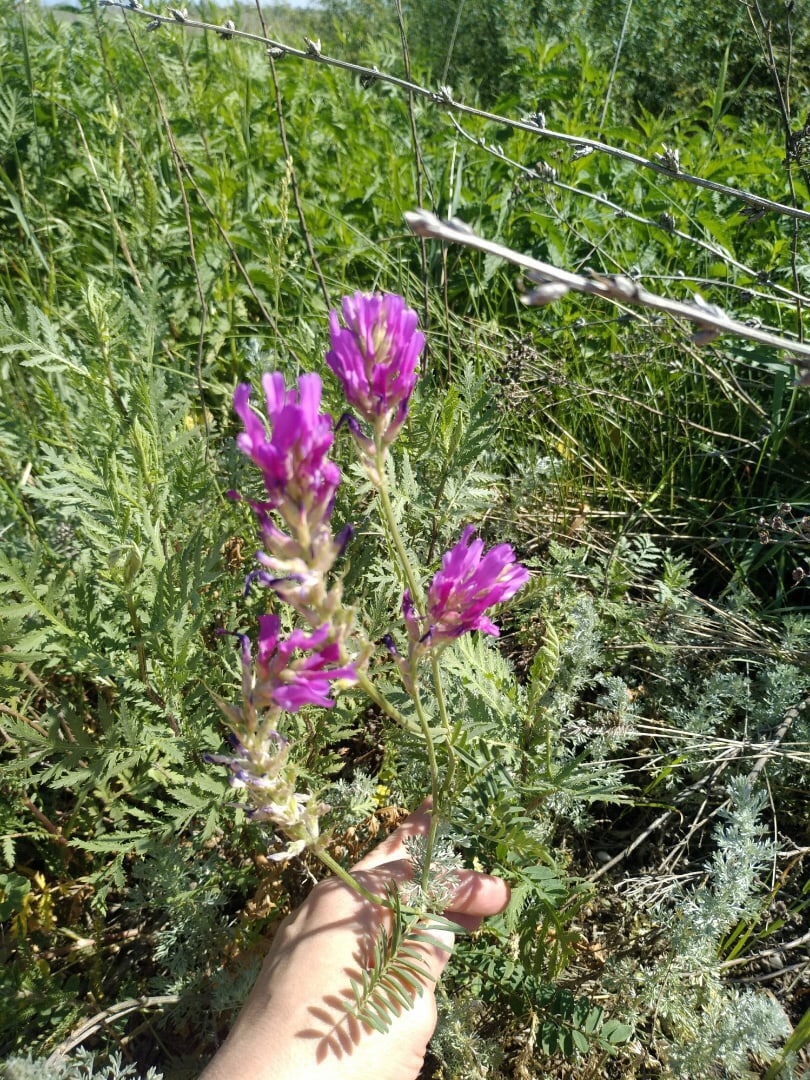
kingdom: Plantae
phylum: Tracheophyta
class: Magnoliopsida
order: Fabales
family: Fabaceae
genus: Astragalus
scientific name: Astragalus onobrychis
